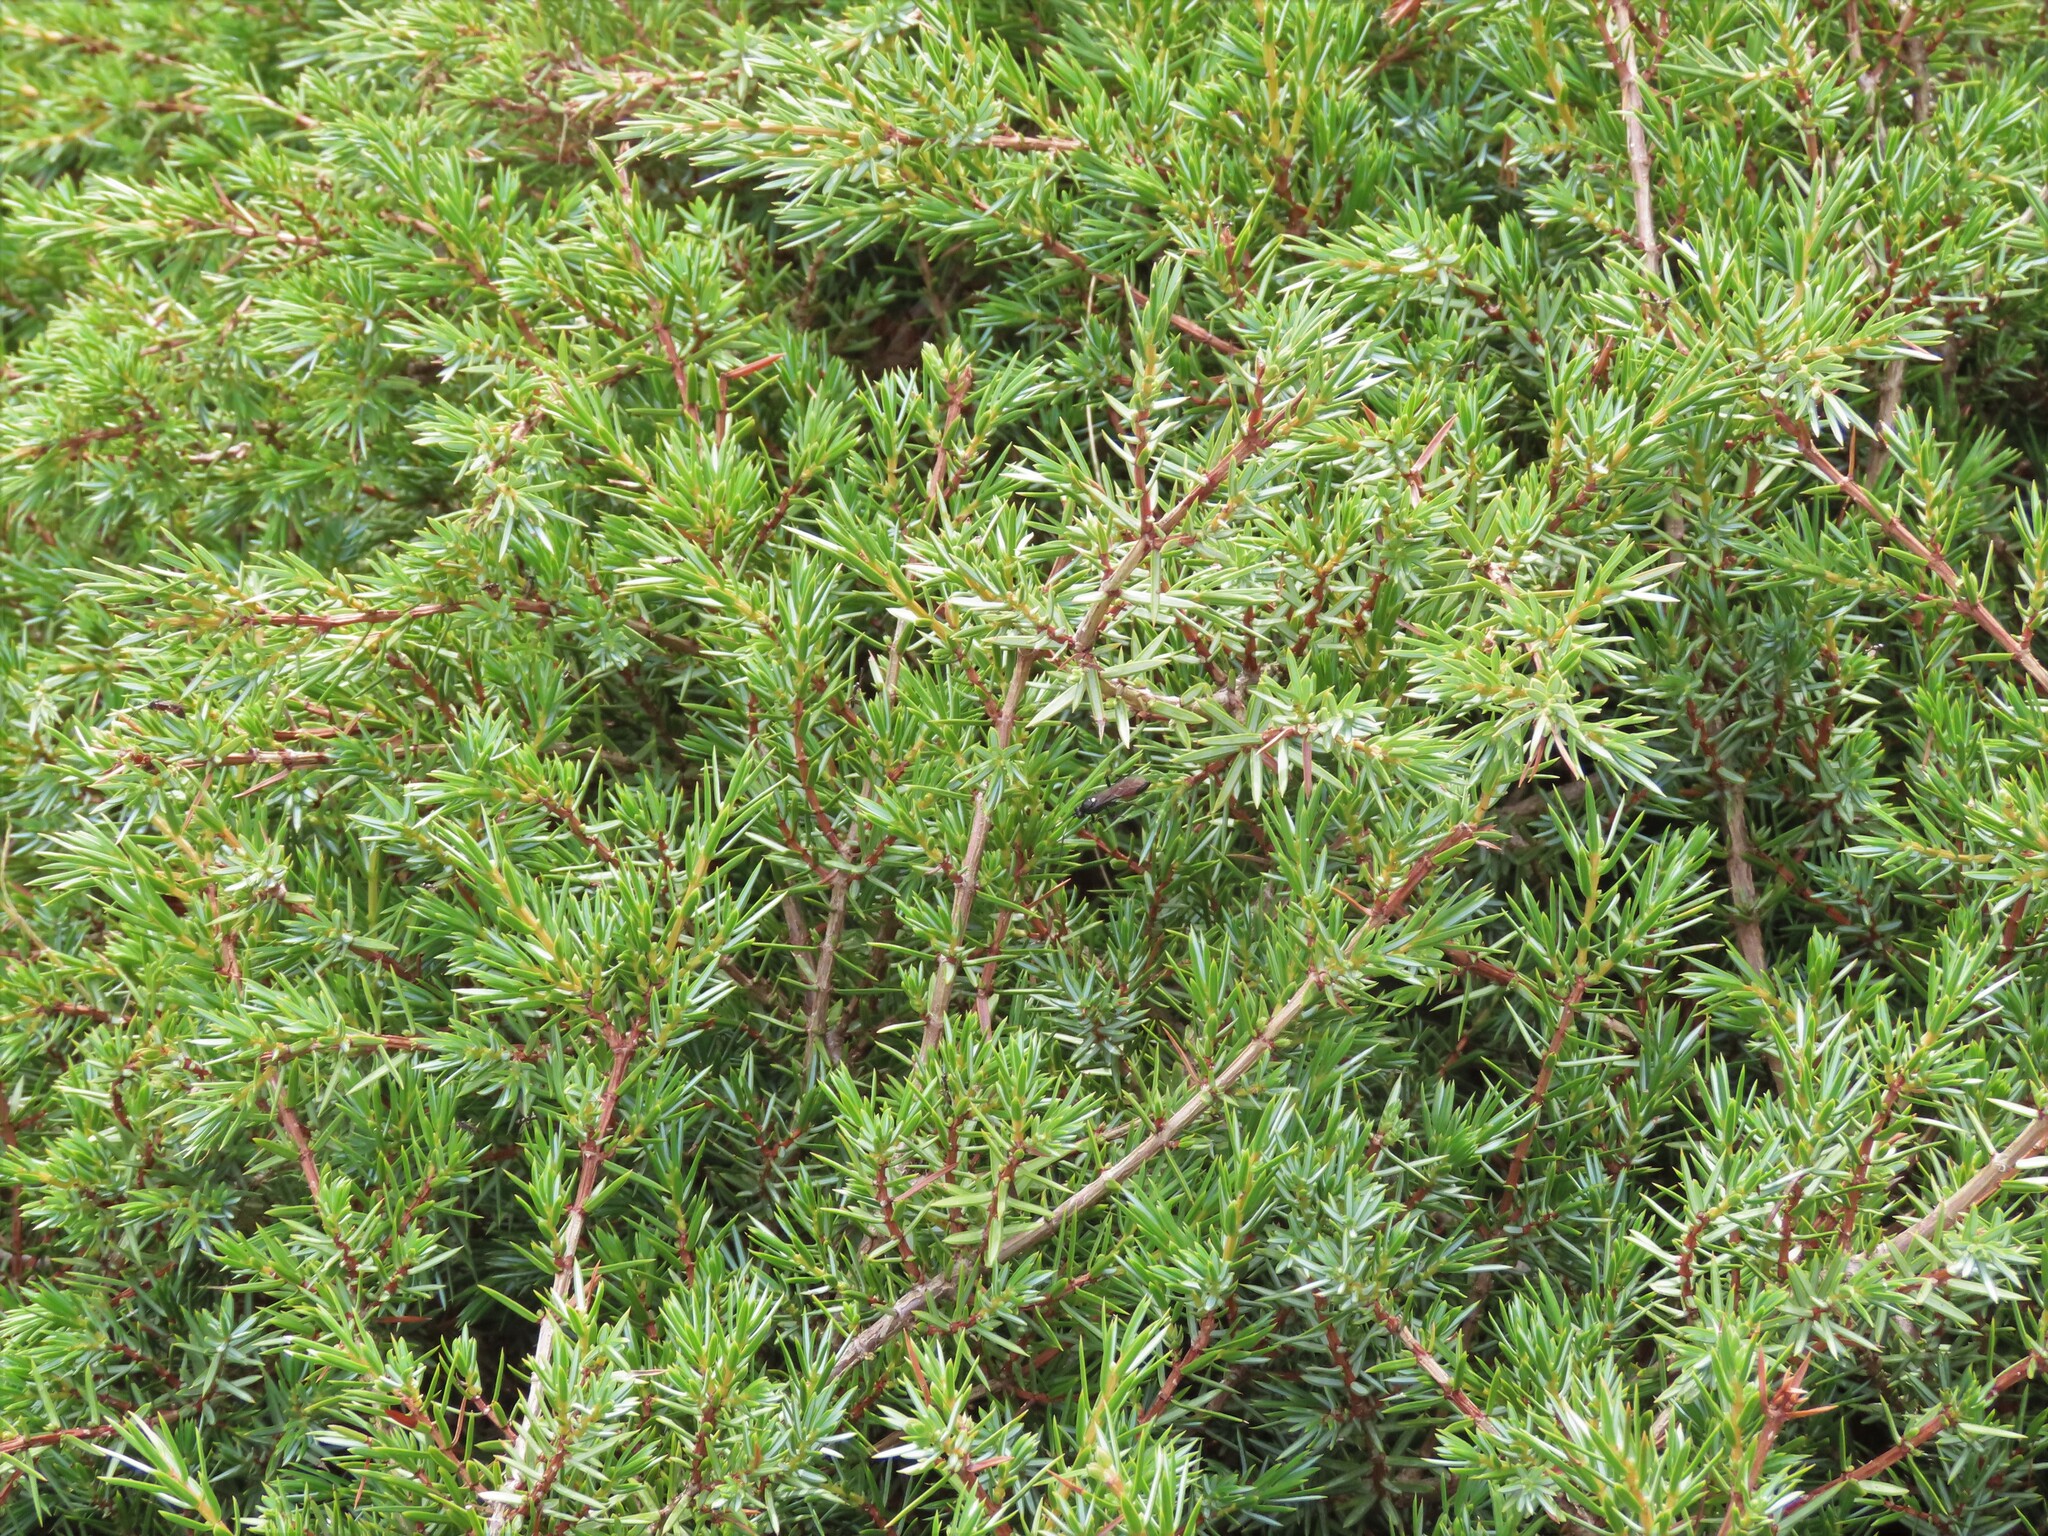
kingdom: Plantae
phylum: Tracheophyta
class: Pinopsida
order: Pinales
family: Cupressaceae
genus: Juniperus
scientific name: Juniperus communis
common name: Common juniper
